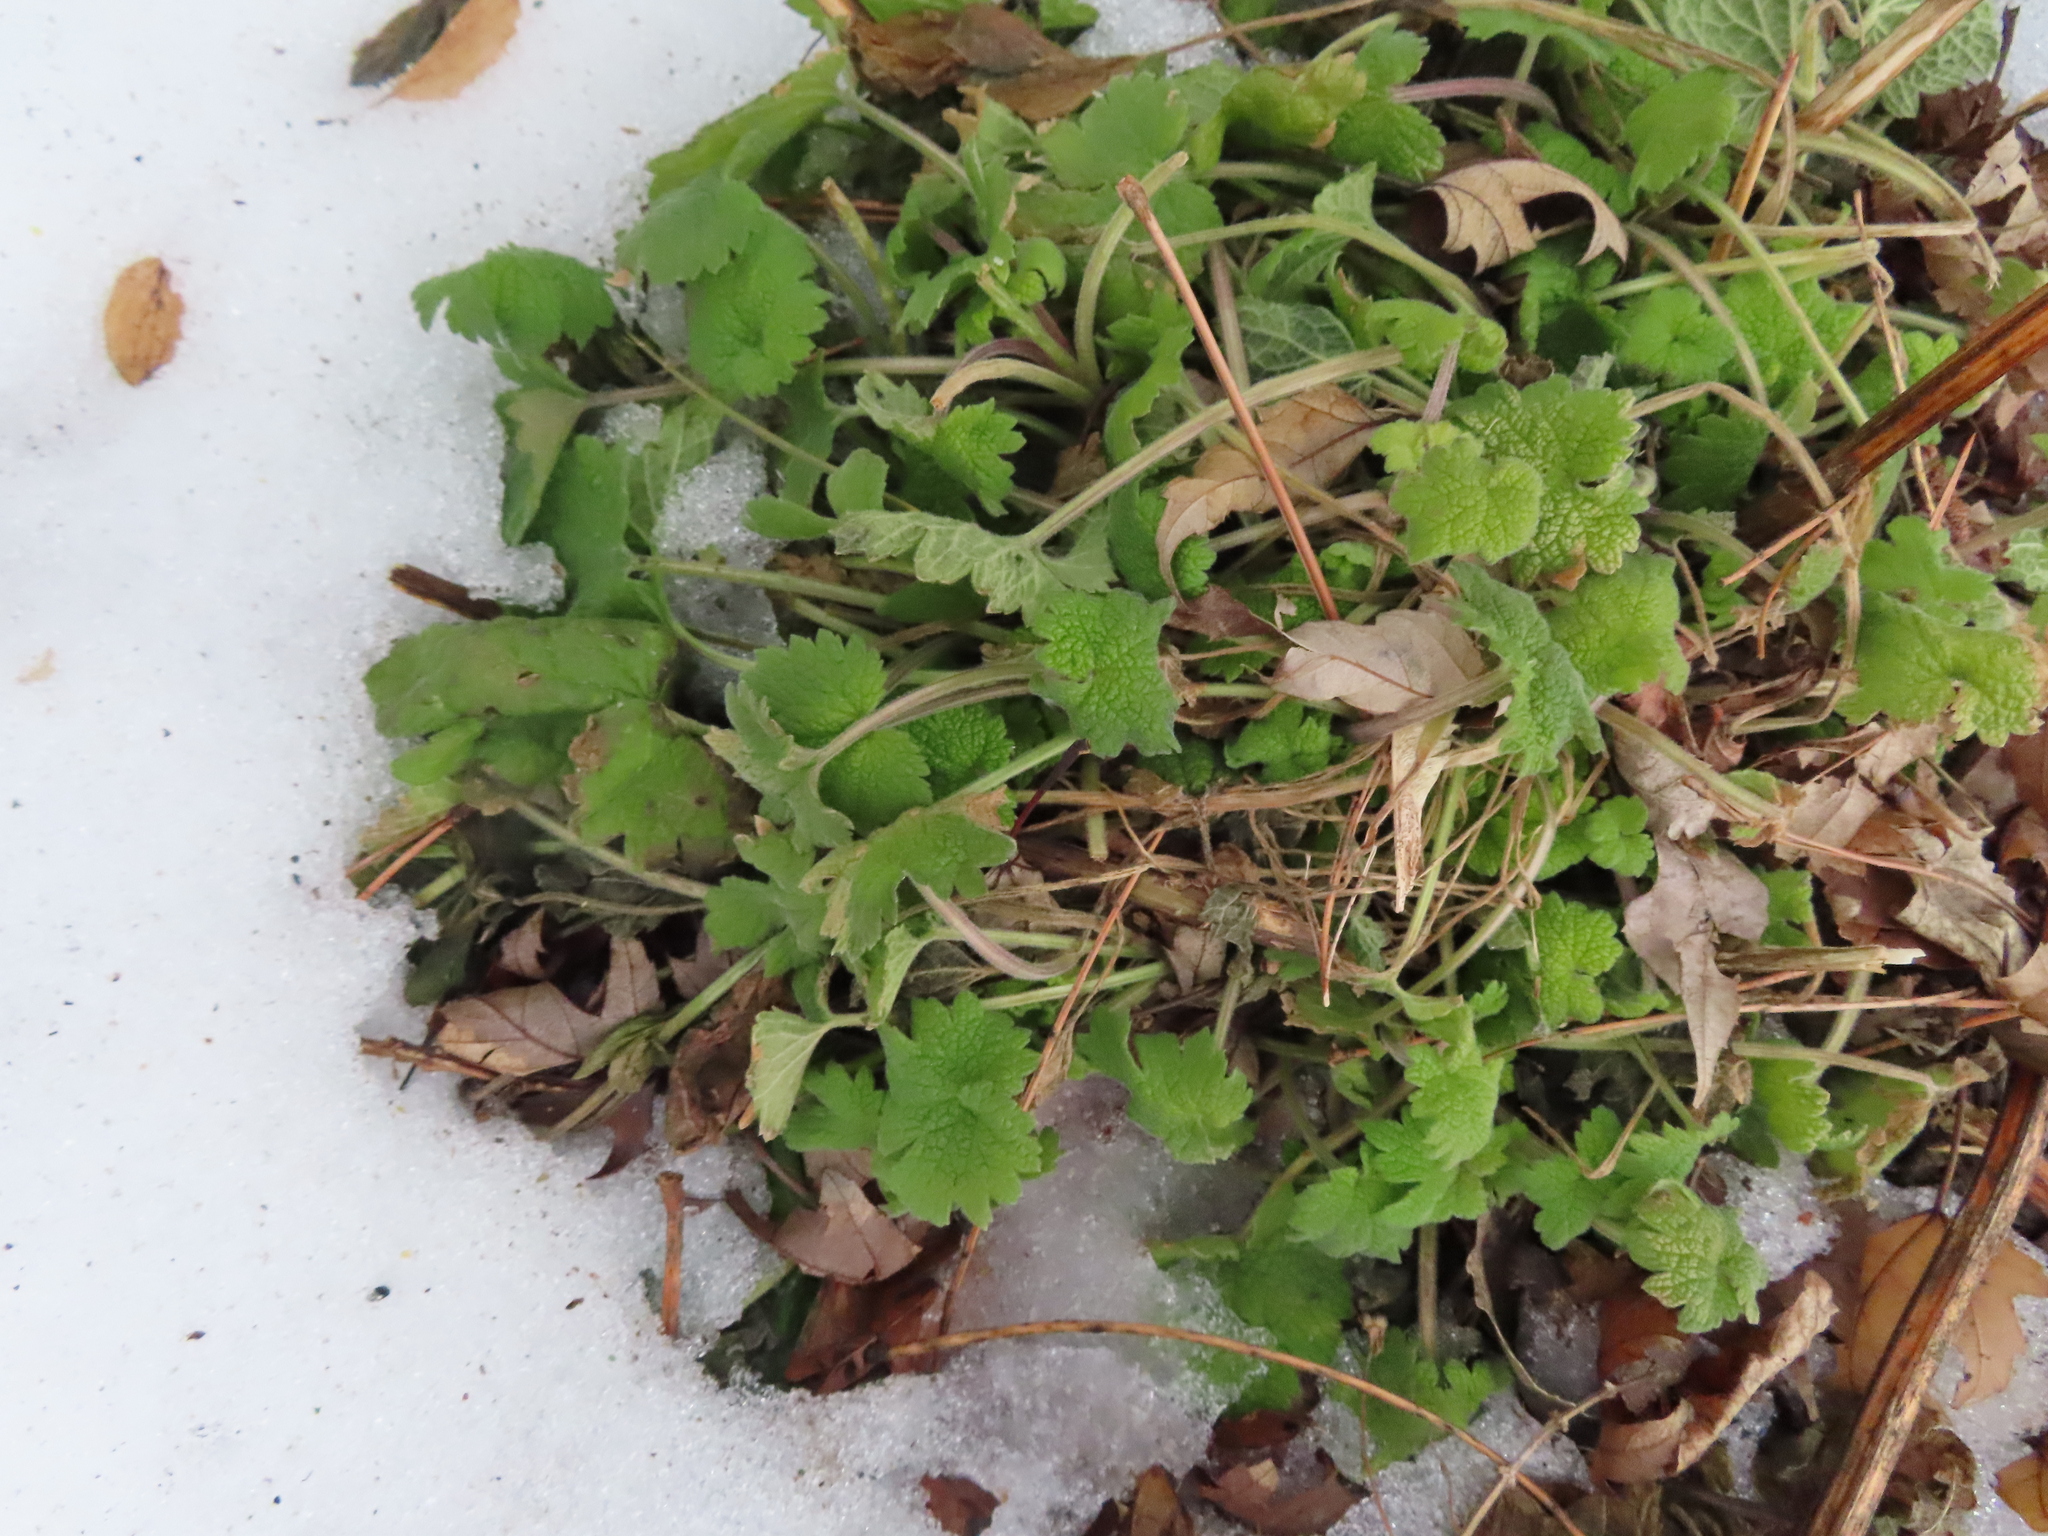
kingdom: Plantae
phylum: Tracheophyta
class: Magnoliopsida
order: Lamiales
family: Lamiaceae
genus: Leonurus
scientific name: Leonurus cardiaca
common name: Motherwort
